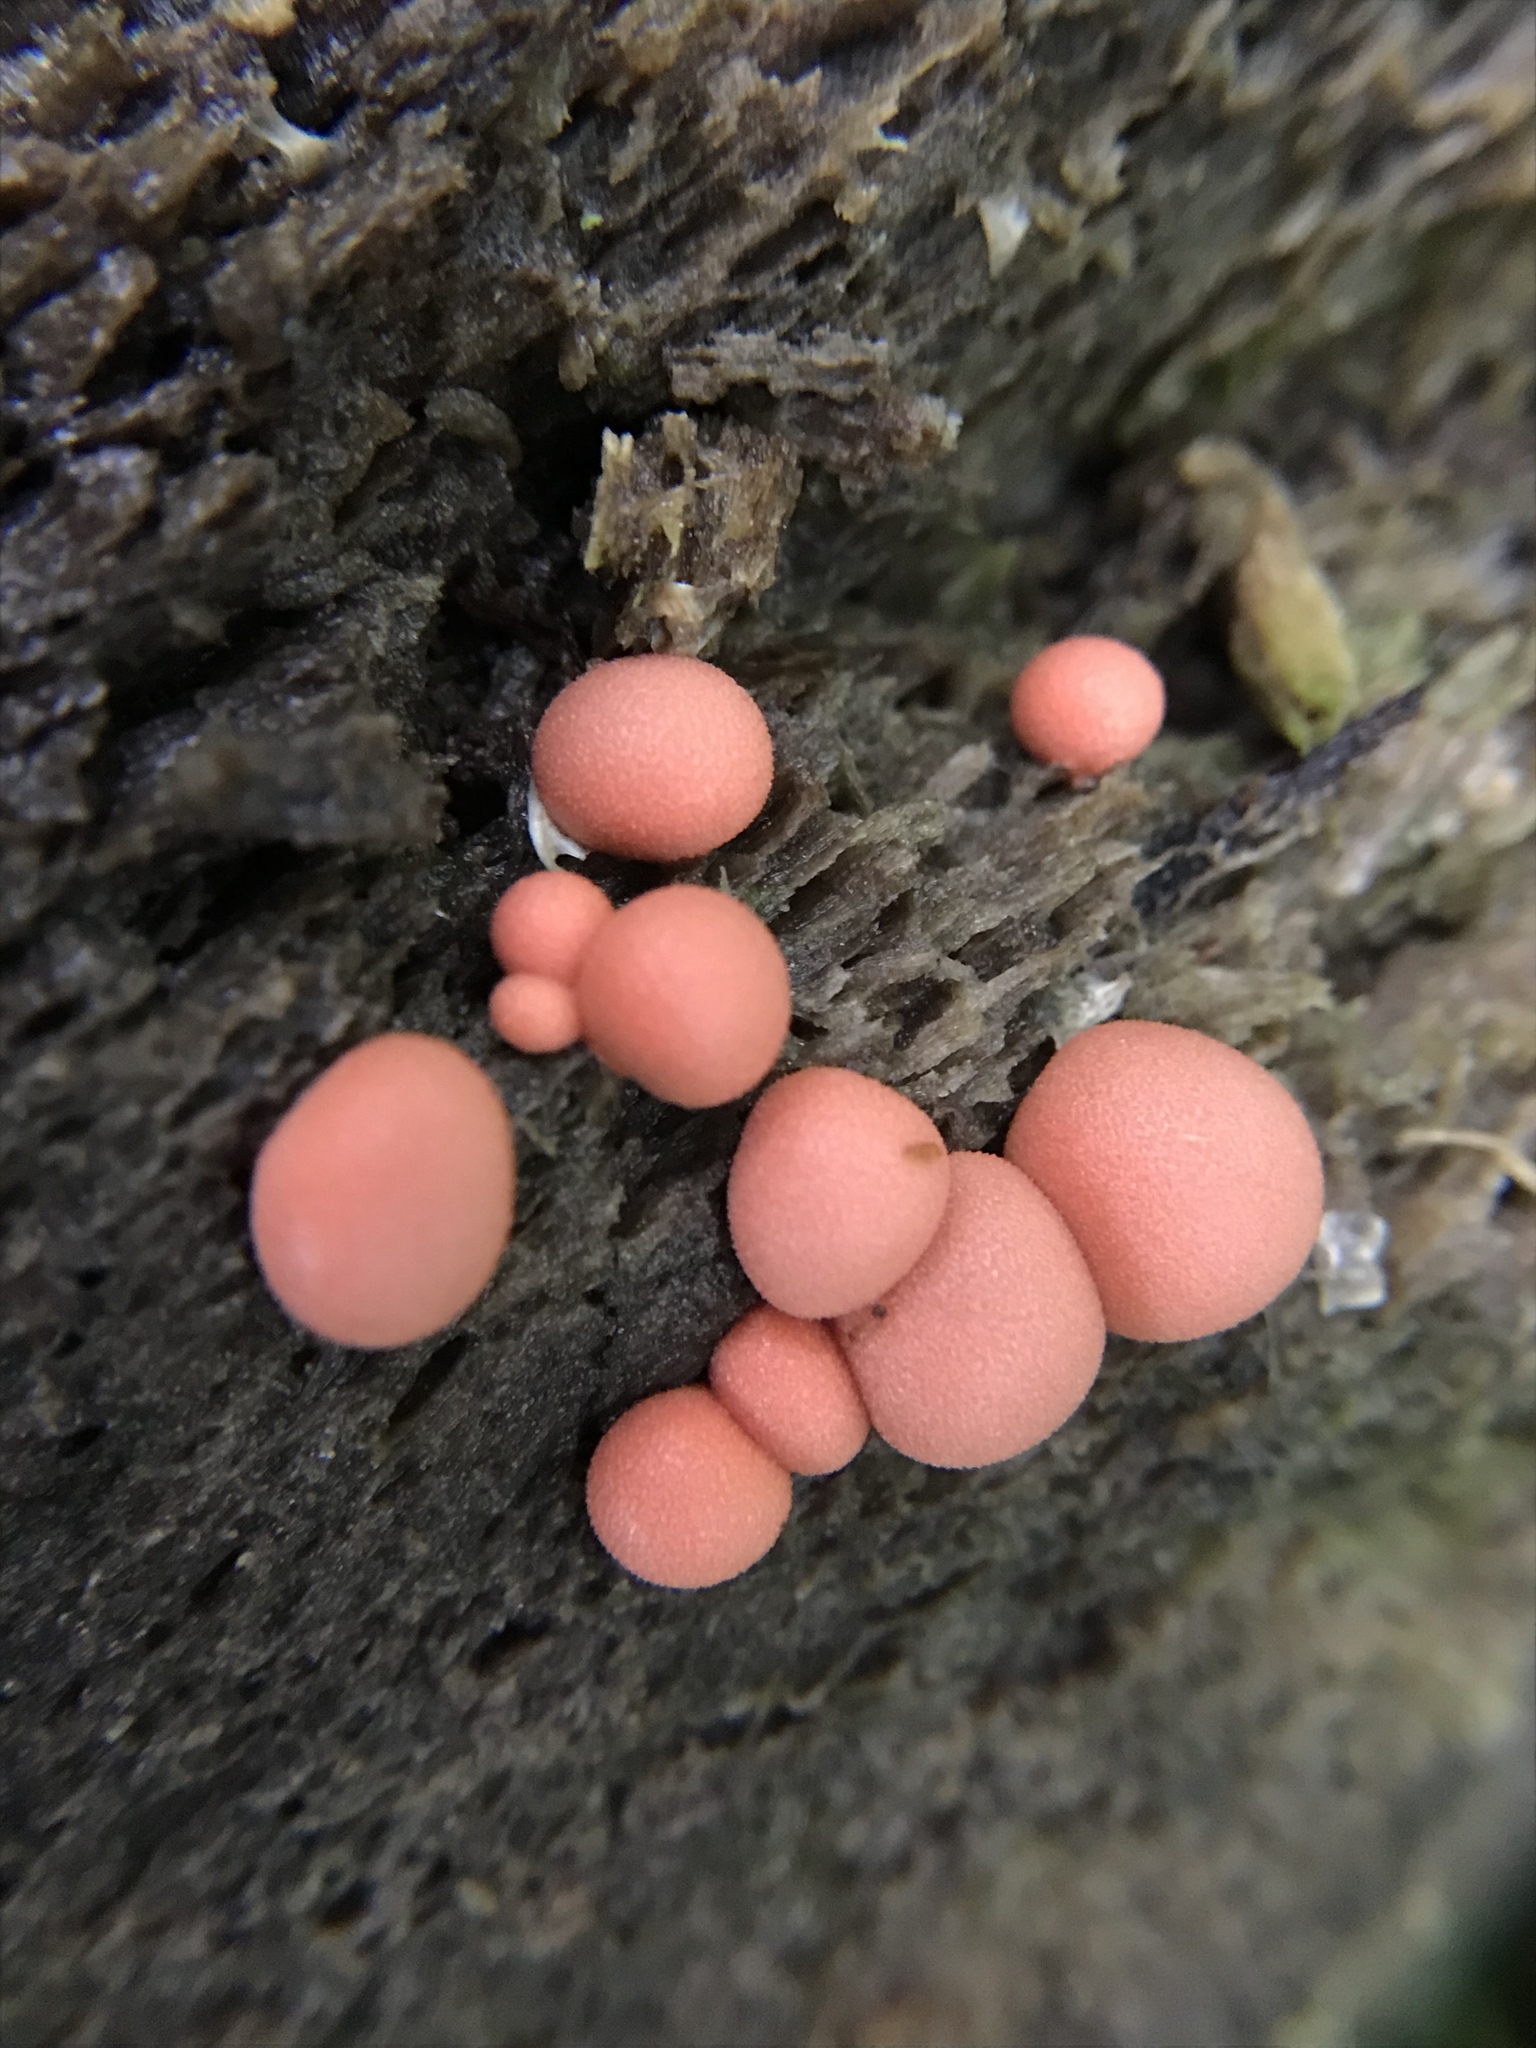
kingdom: Protozoa
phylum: Mycetozoa
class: Myxomycetes
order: Cribrariales
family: Tubiferaceae
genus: Lycogala
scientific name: Lycogala epidendrum
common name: Wolf's milk
